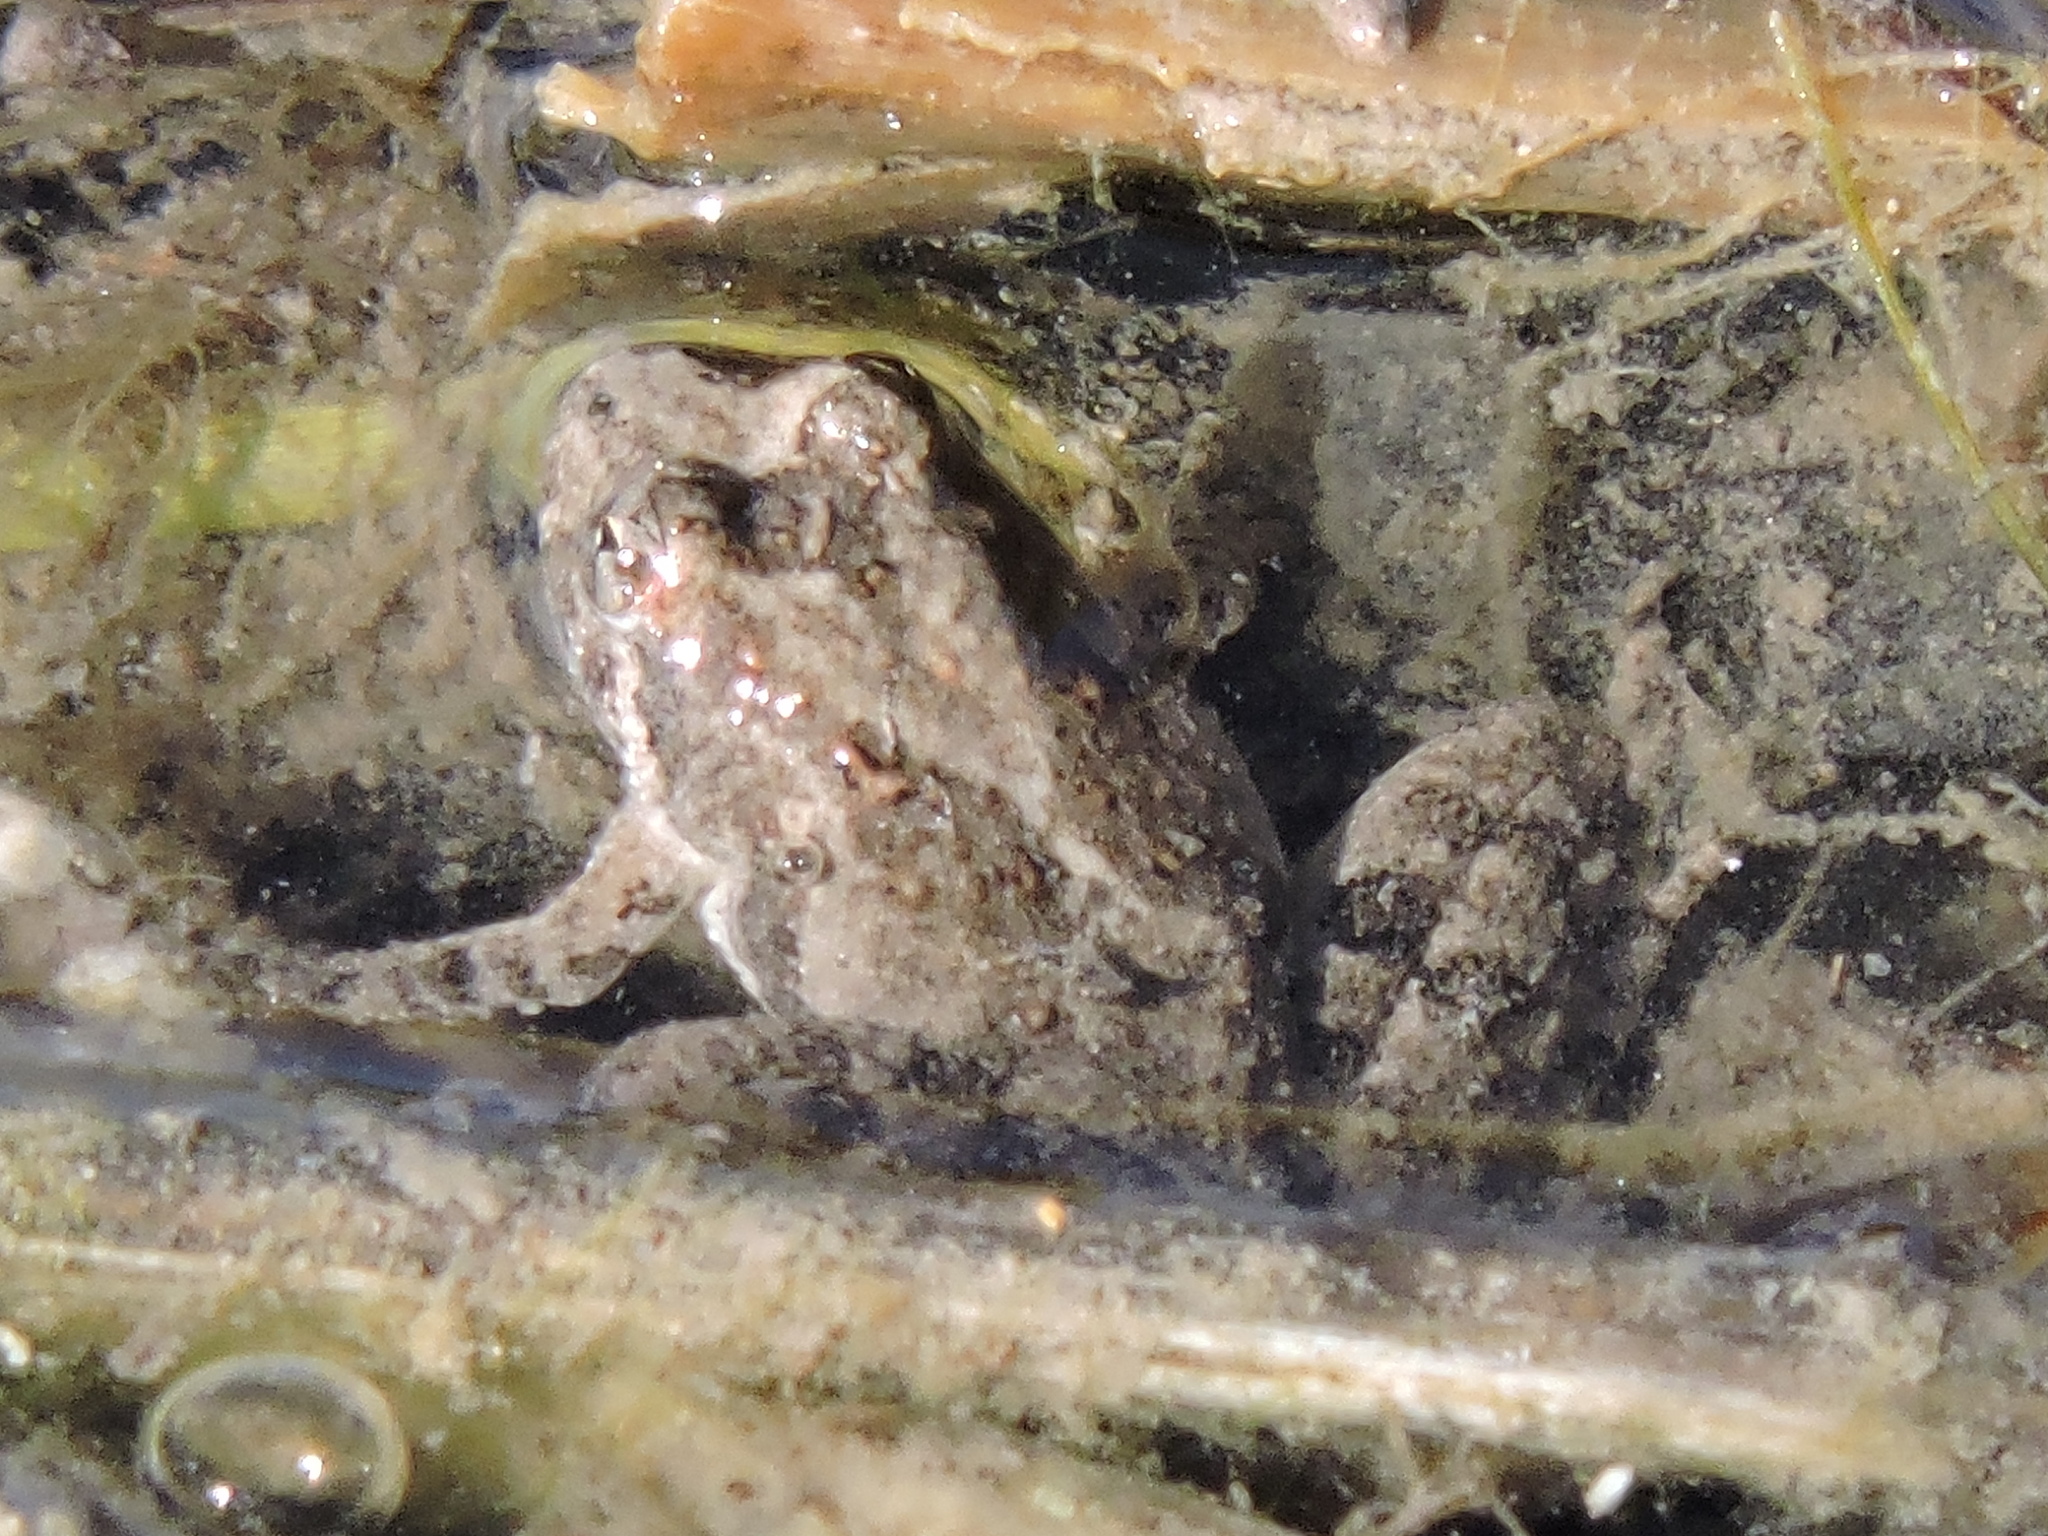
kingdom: Animalia
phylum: Chordata
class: Amphibia
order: Anura
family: Hylidae
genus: Acris
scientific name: Acris blanchardi
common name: Blanchard's cricket frog
